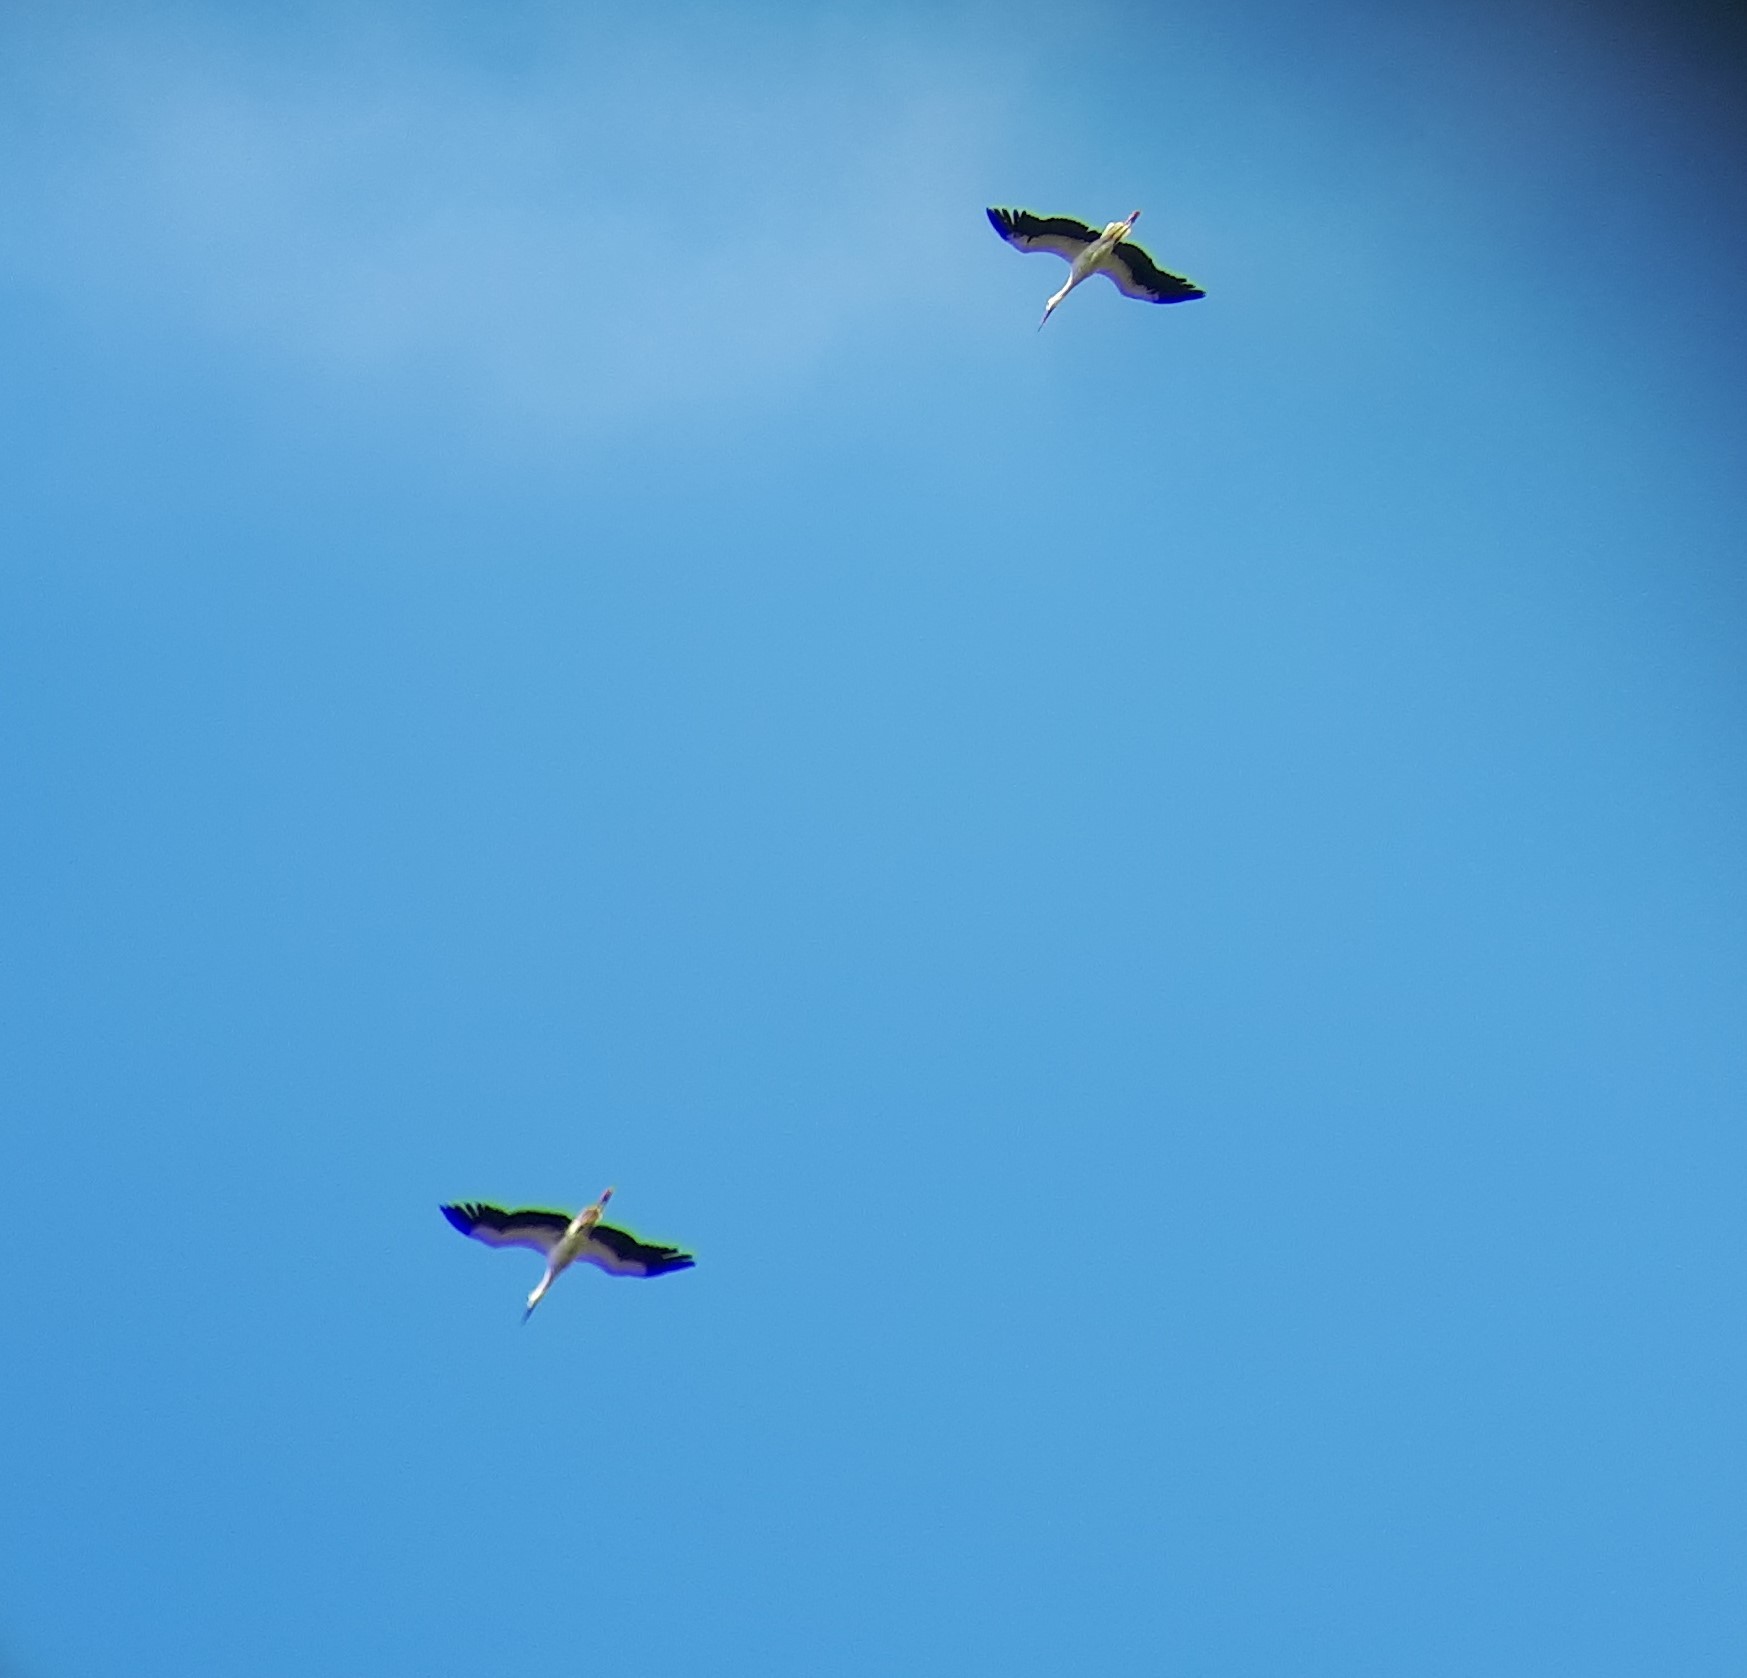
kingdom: Animalia
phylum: Chordata
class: Aves
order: Ciconiiformes
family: Ciconiidae
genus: Ciconia
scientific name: Ciconia ciconia
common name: White stork
